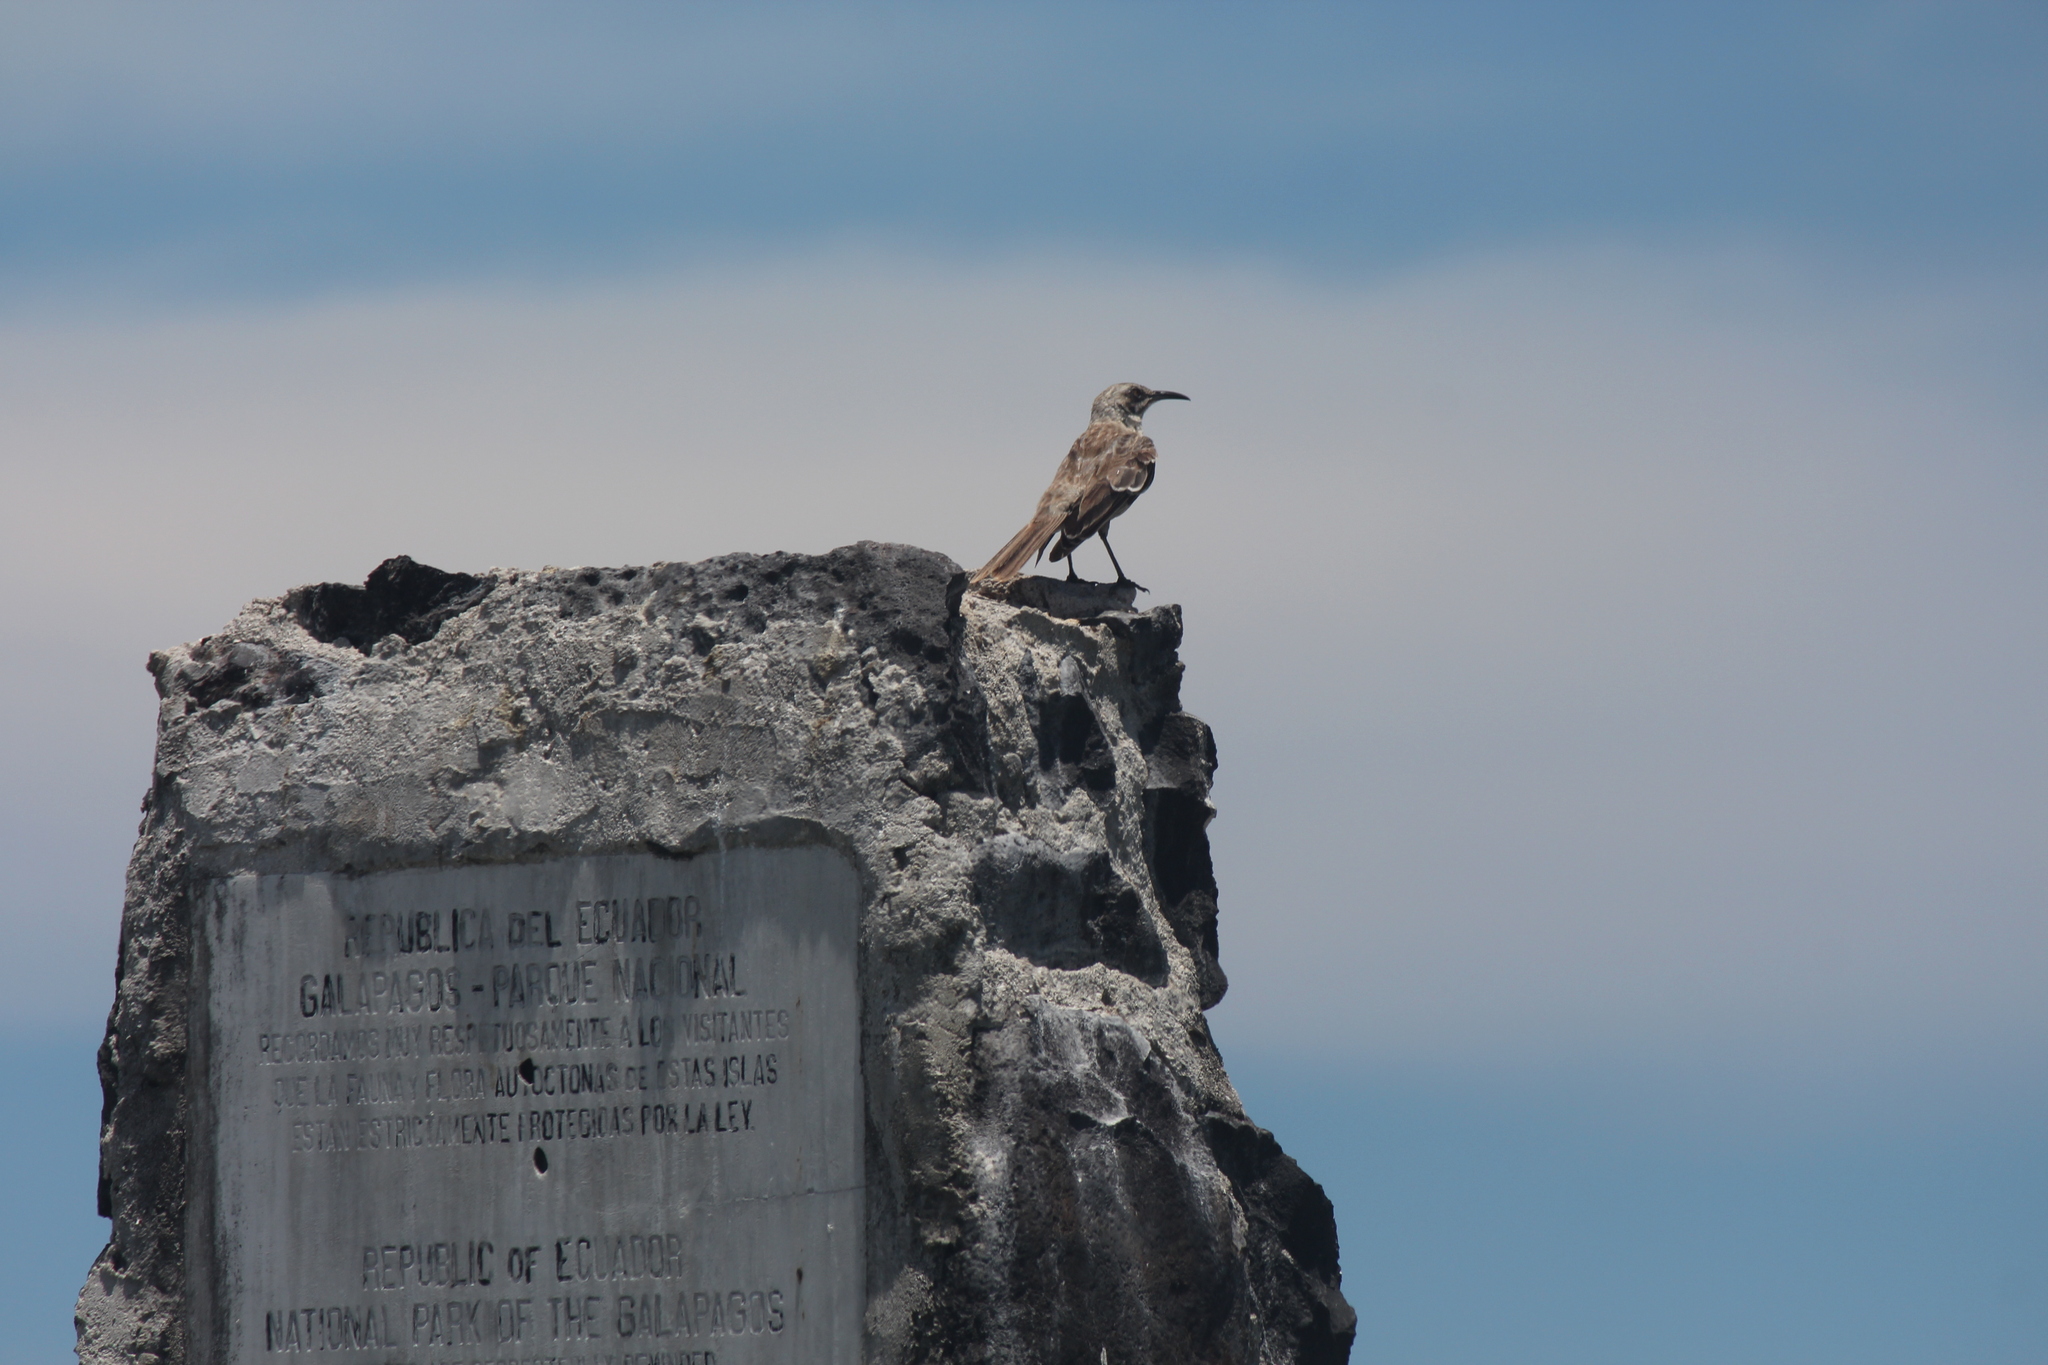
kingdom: Animalia
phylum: Chordata
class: Aves
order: Passeriformes
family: Mimidae
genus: Mimus
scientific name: Mimus macdonaldi
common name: Espanola mockingbird
